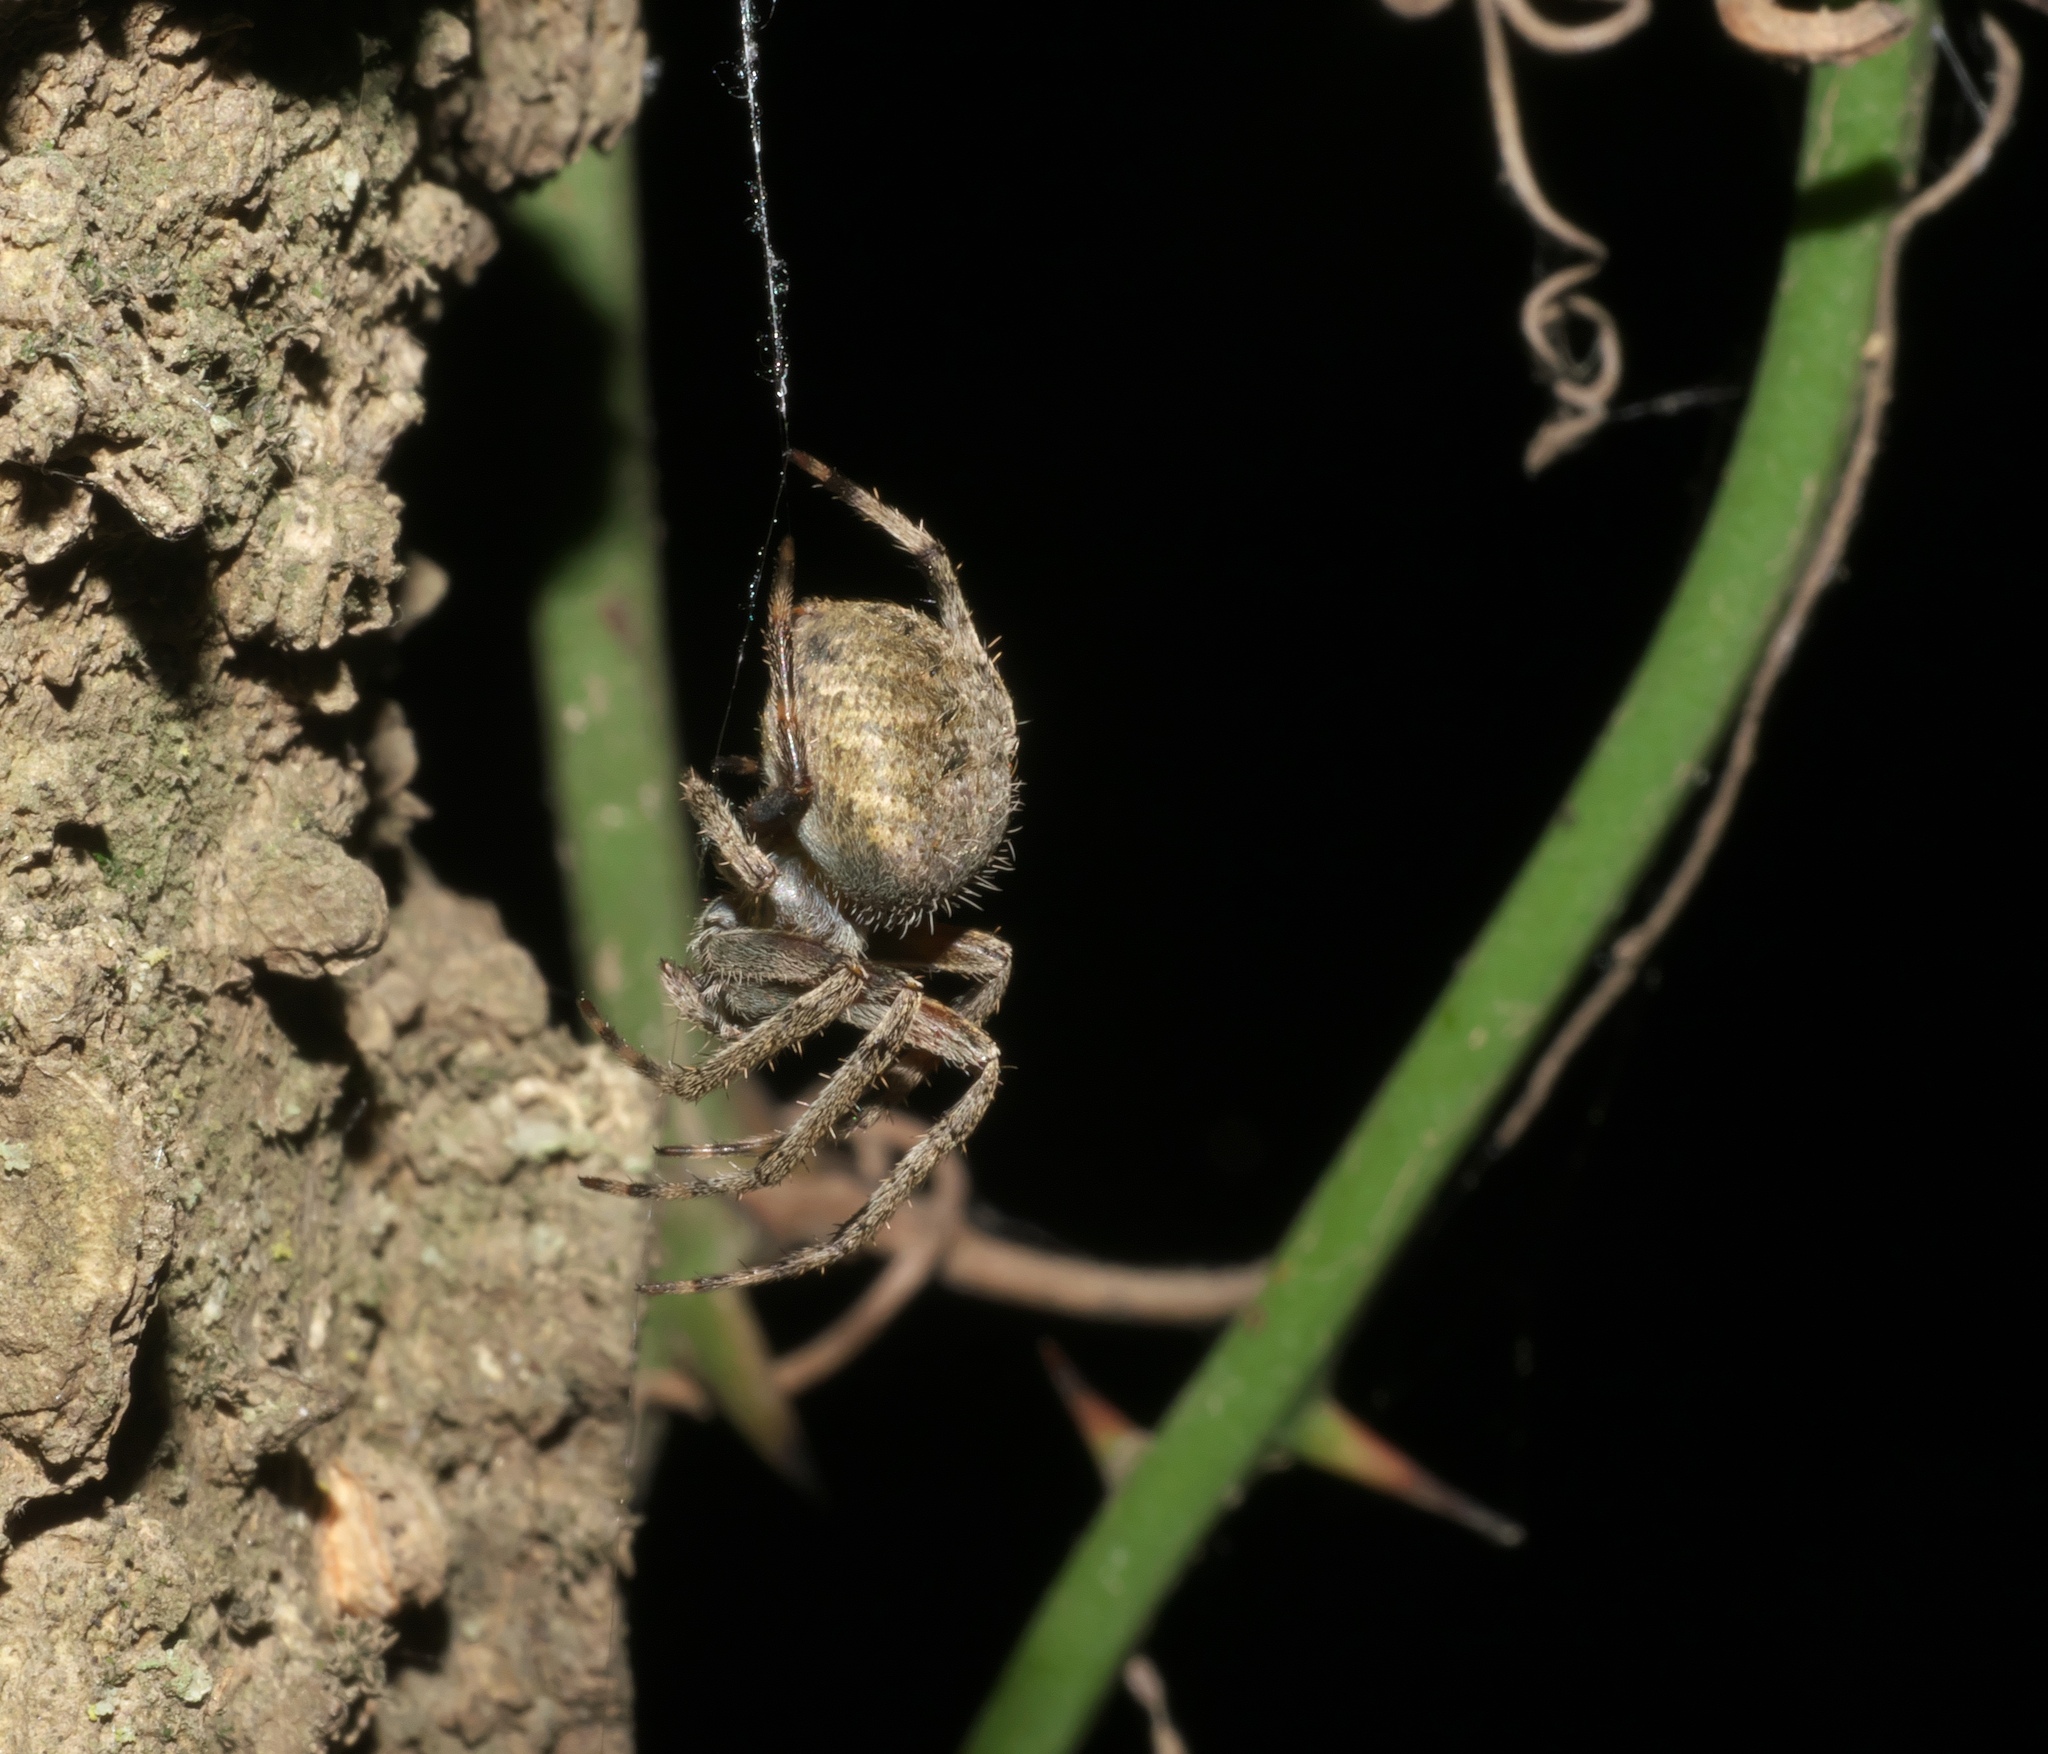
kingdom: Animalia
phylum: Arthropoda
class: Arachnida
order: Araneae
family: Araneidae
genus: Neoscona
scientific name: Neoscona crucifera
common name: Spotted orbweaver
